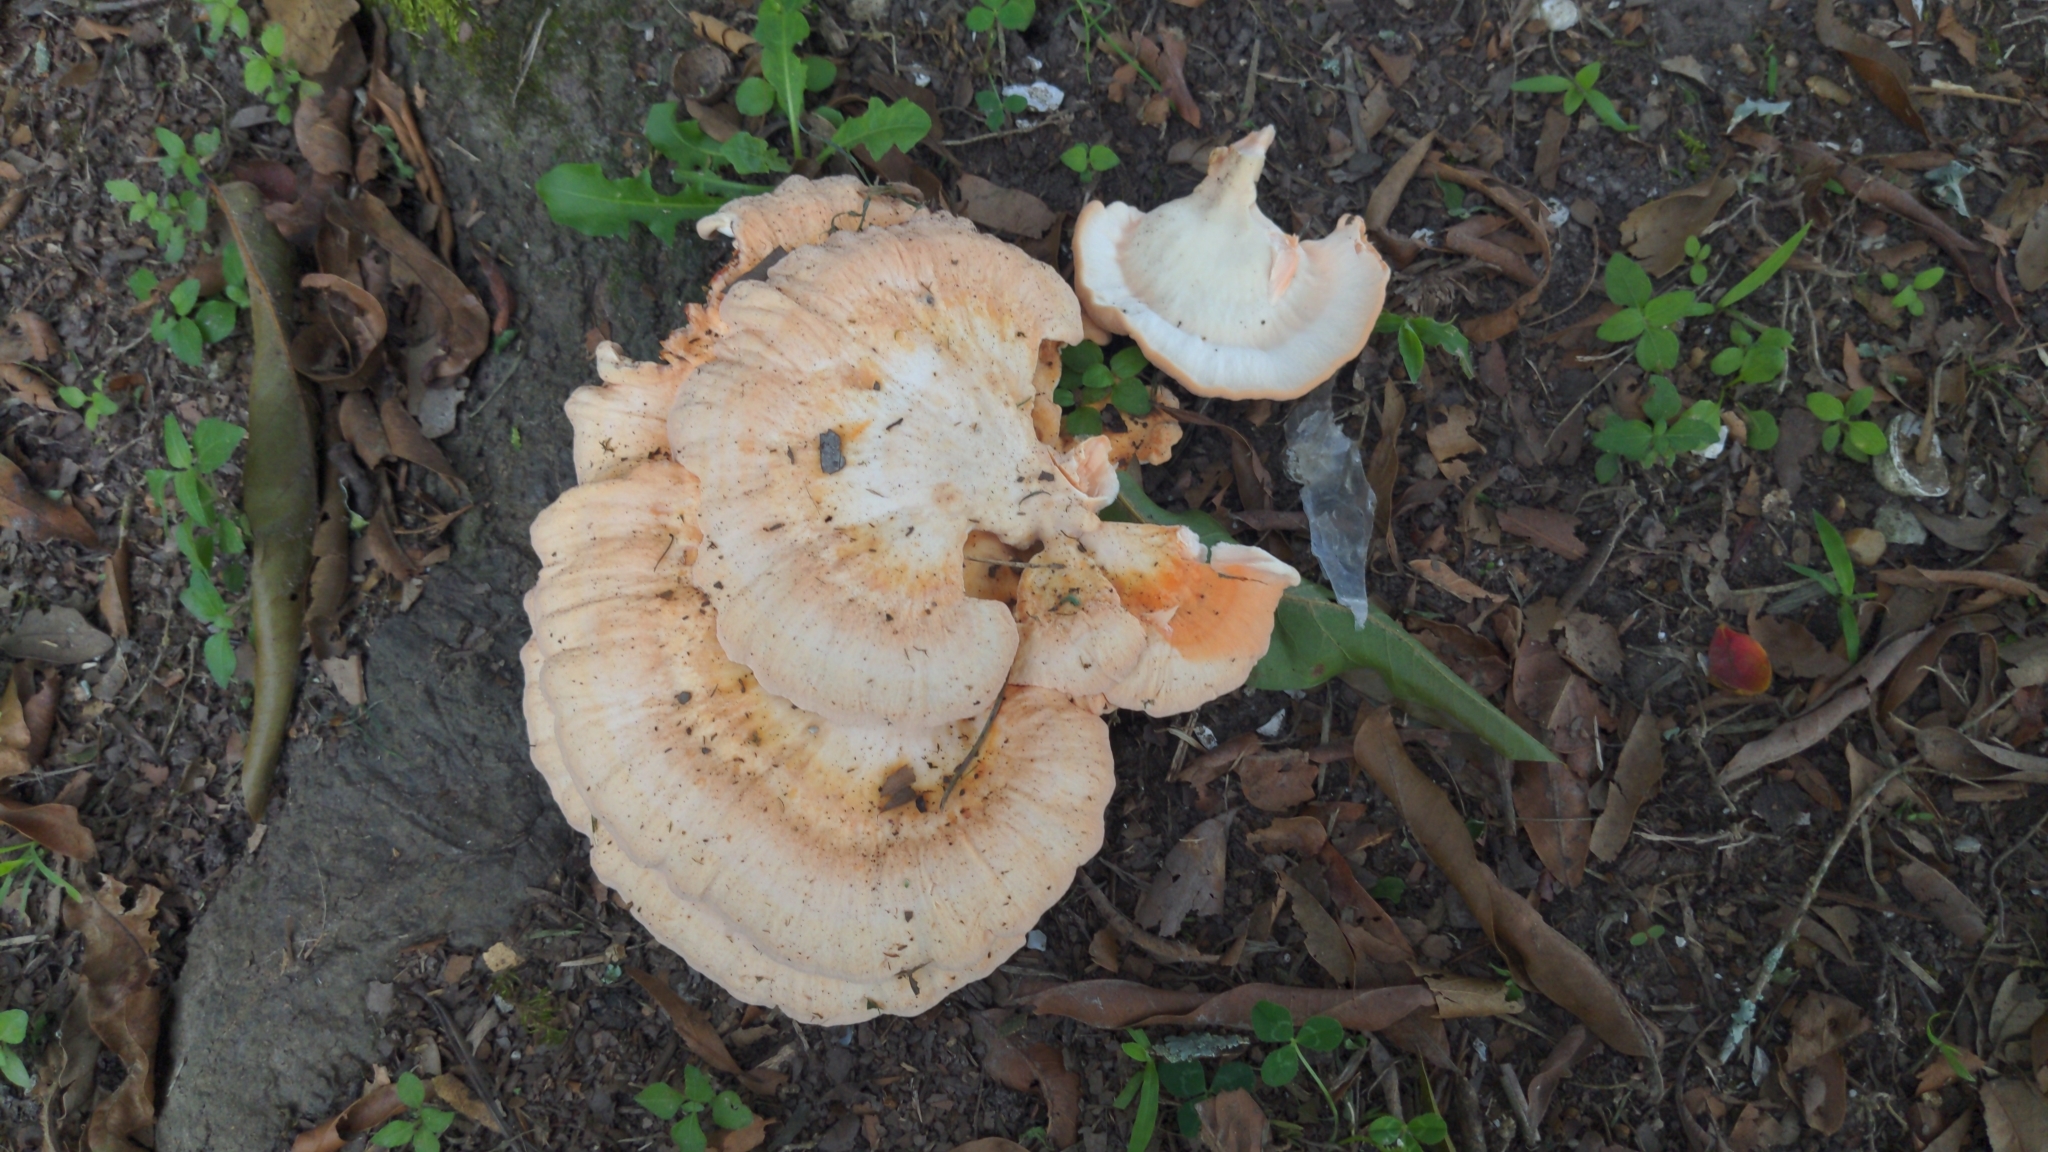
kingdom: Fungi
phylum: Basidiomycota
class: Agaricomycetes
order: Polyporales
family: Laetiporaceae
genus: Laetiporus
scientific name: Laetiporus sulphureus
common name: Chicken of the woods
